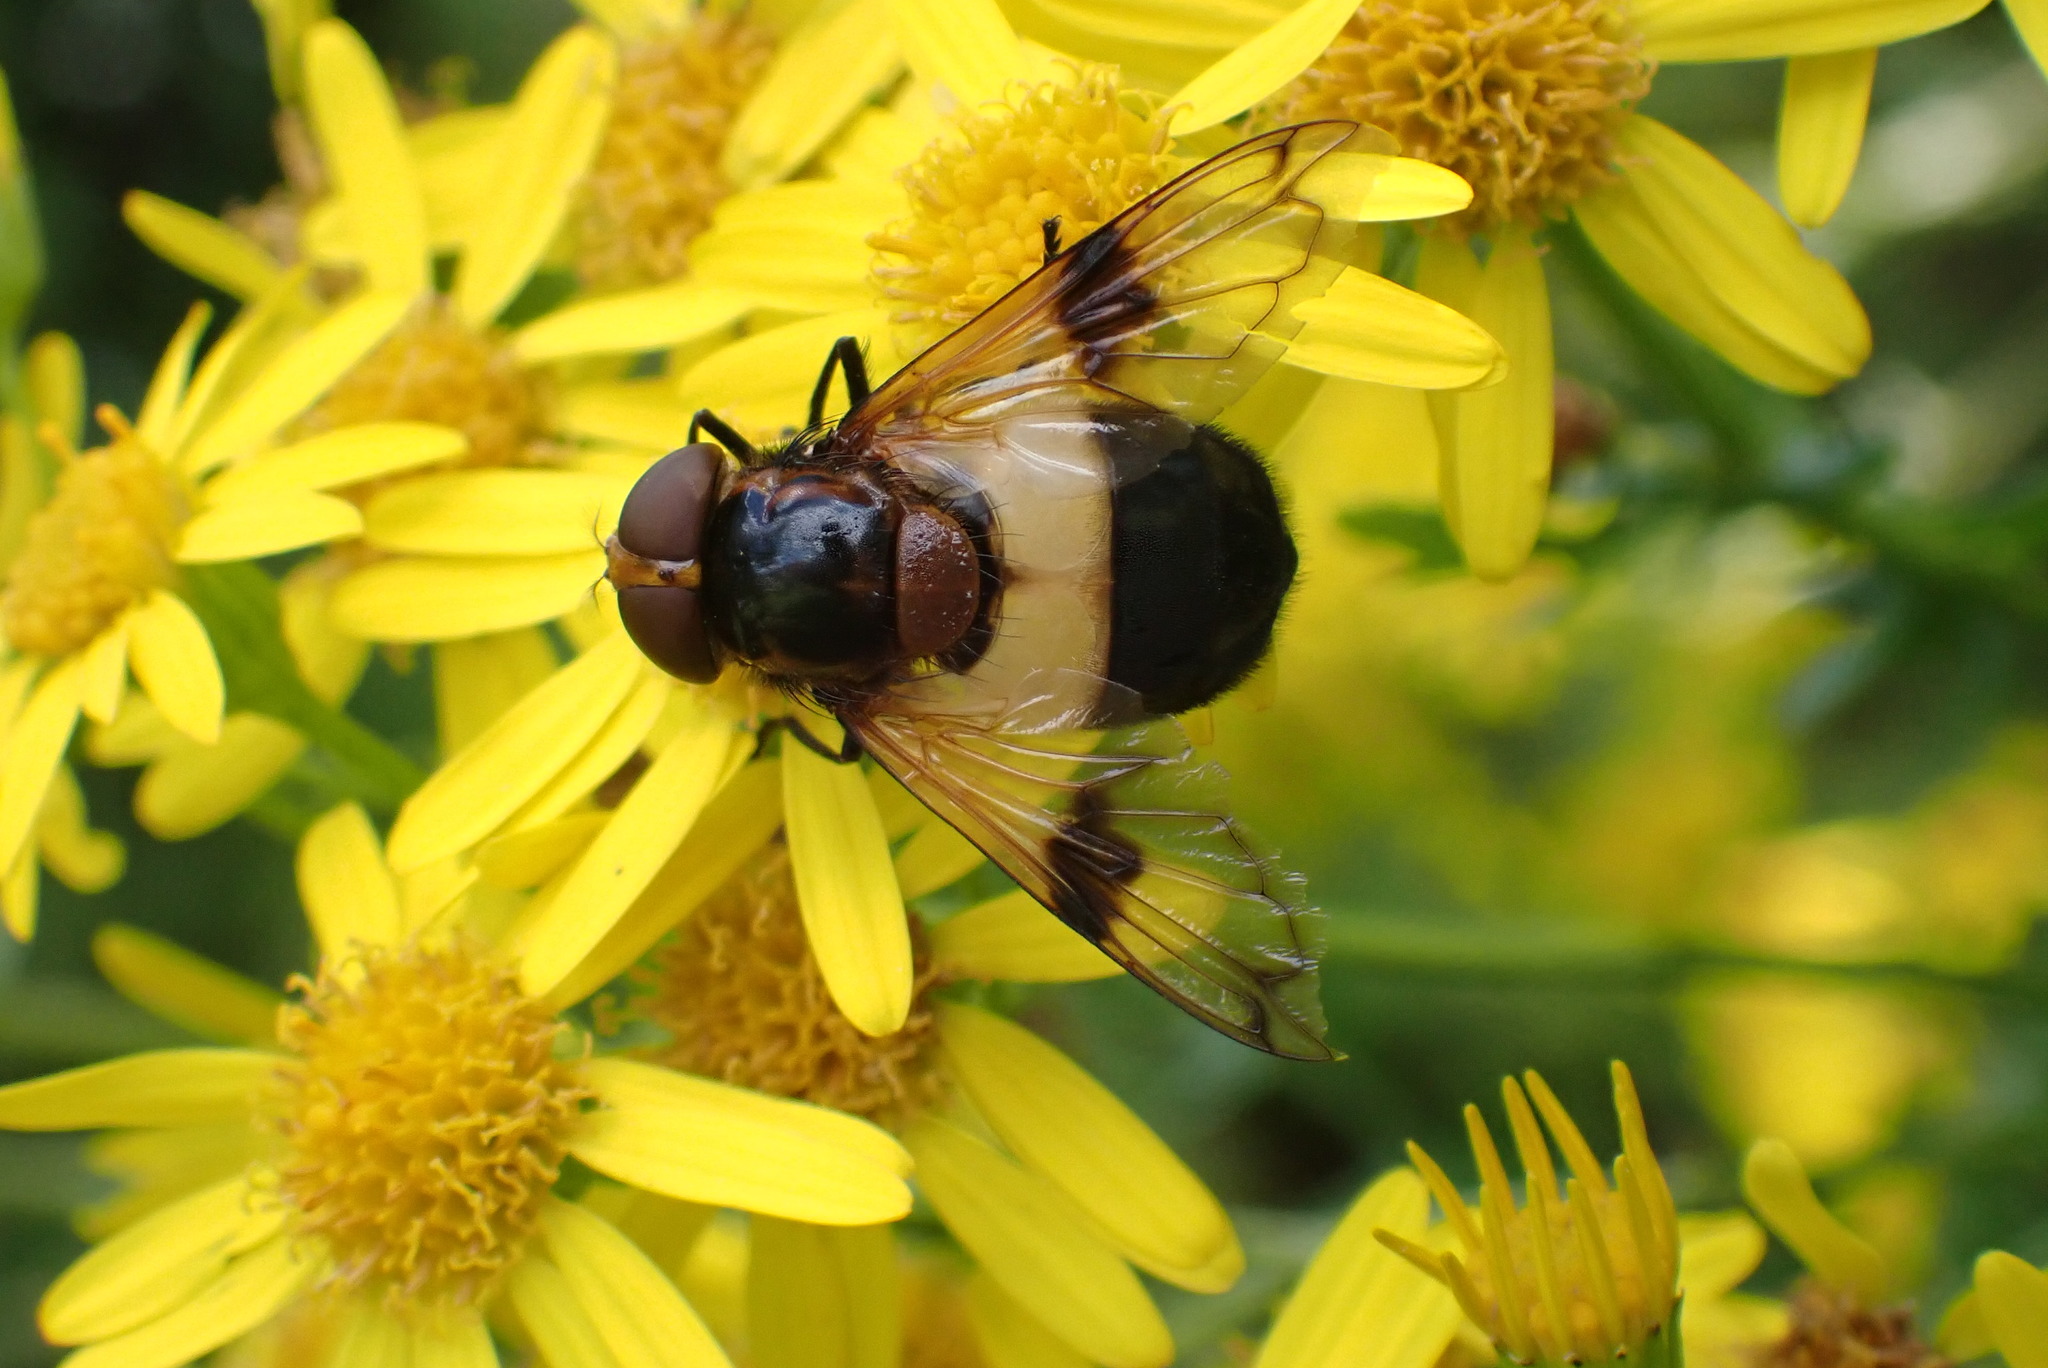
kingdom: Animalia
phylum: Arthropoda
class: Insecta
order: Diptera
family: Syrphidae
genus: Volucella
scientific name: Volucella pellucens
